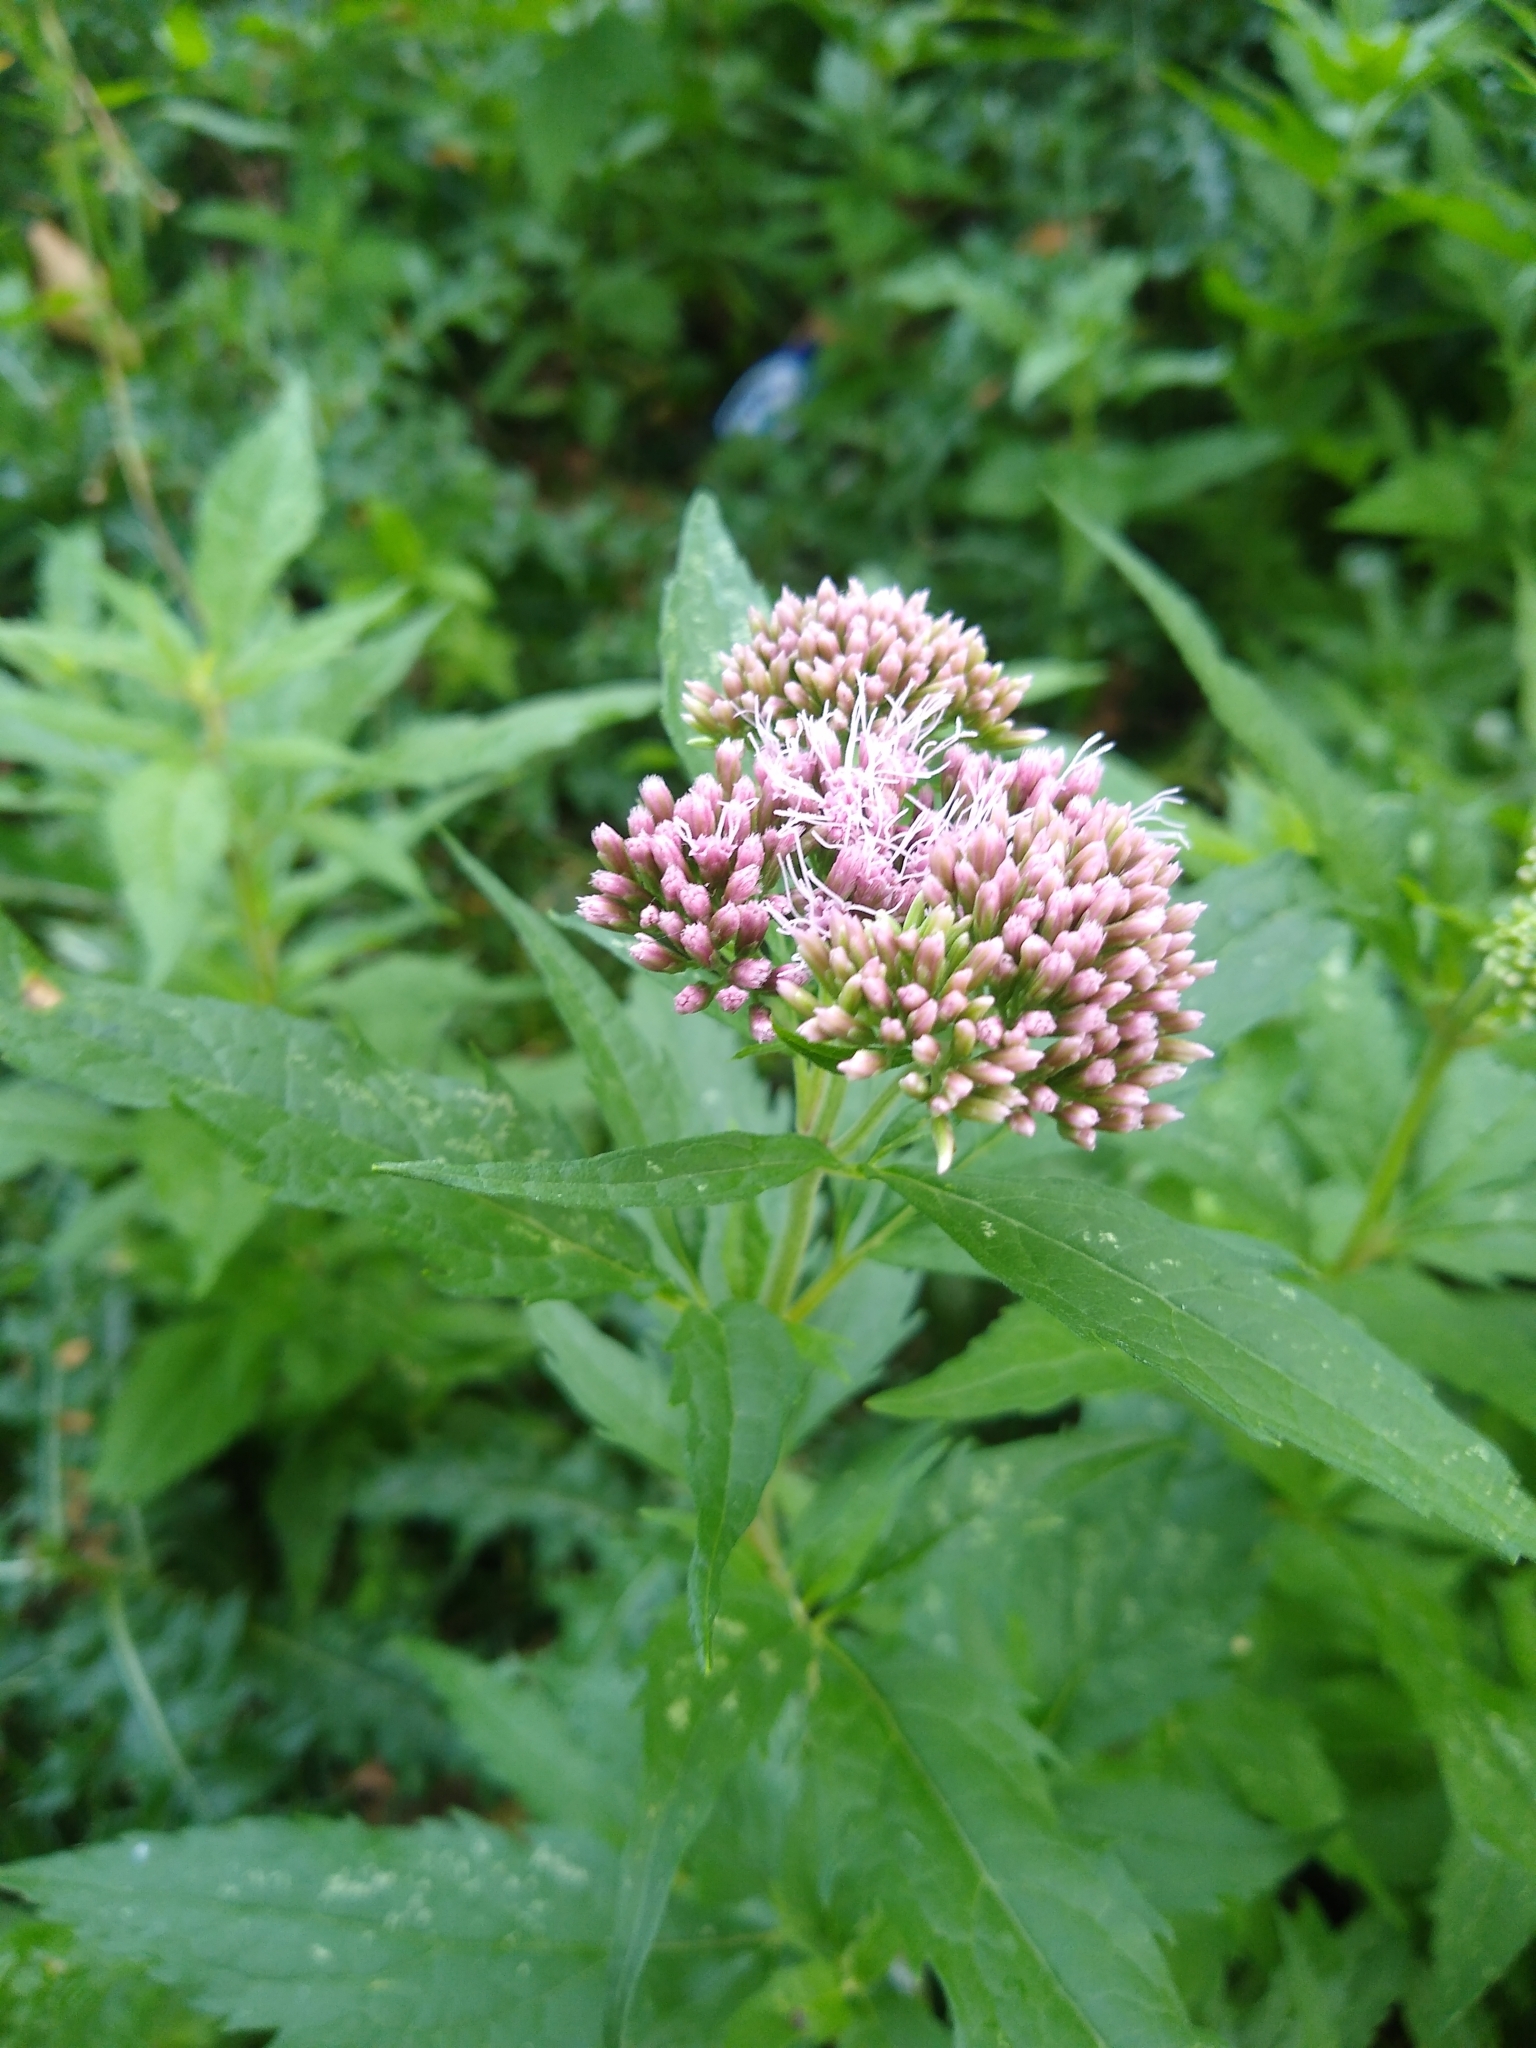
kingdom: Plantae
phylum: Tracheophyta
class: Magnoliopsida
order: Asterales
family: Asteraceae
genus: Eupatorium
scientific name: Eupatorium cannabinum
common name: Hemp-agrimony
